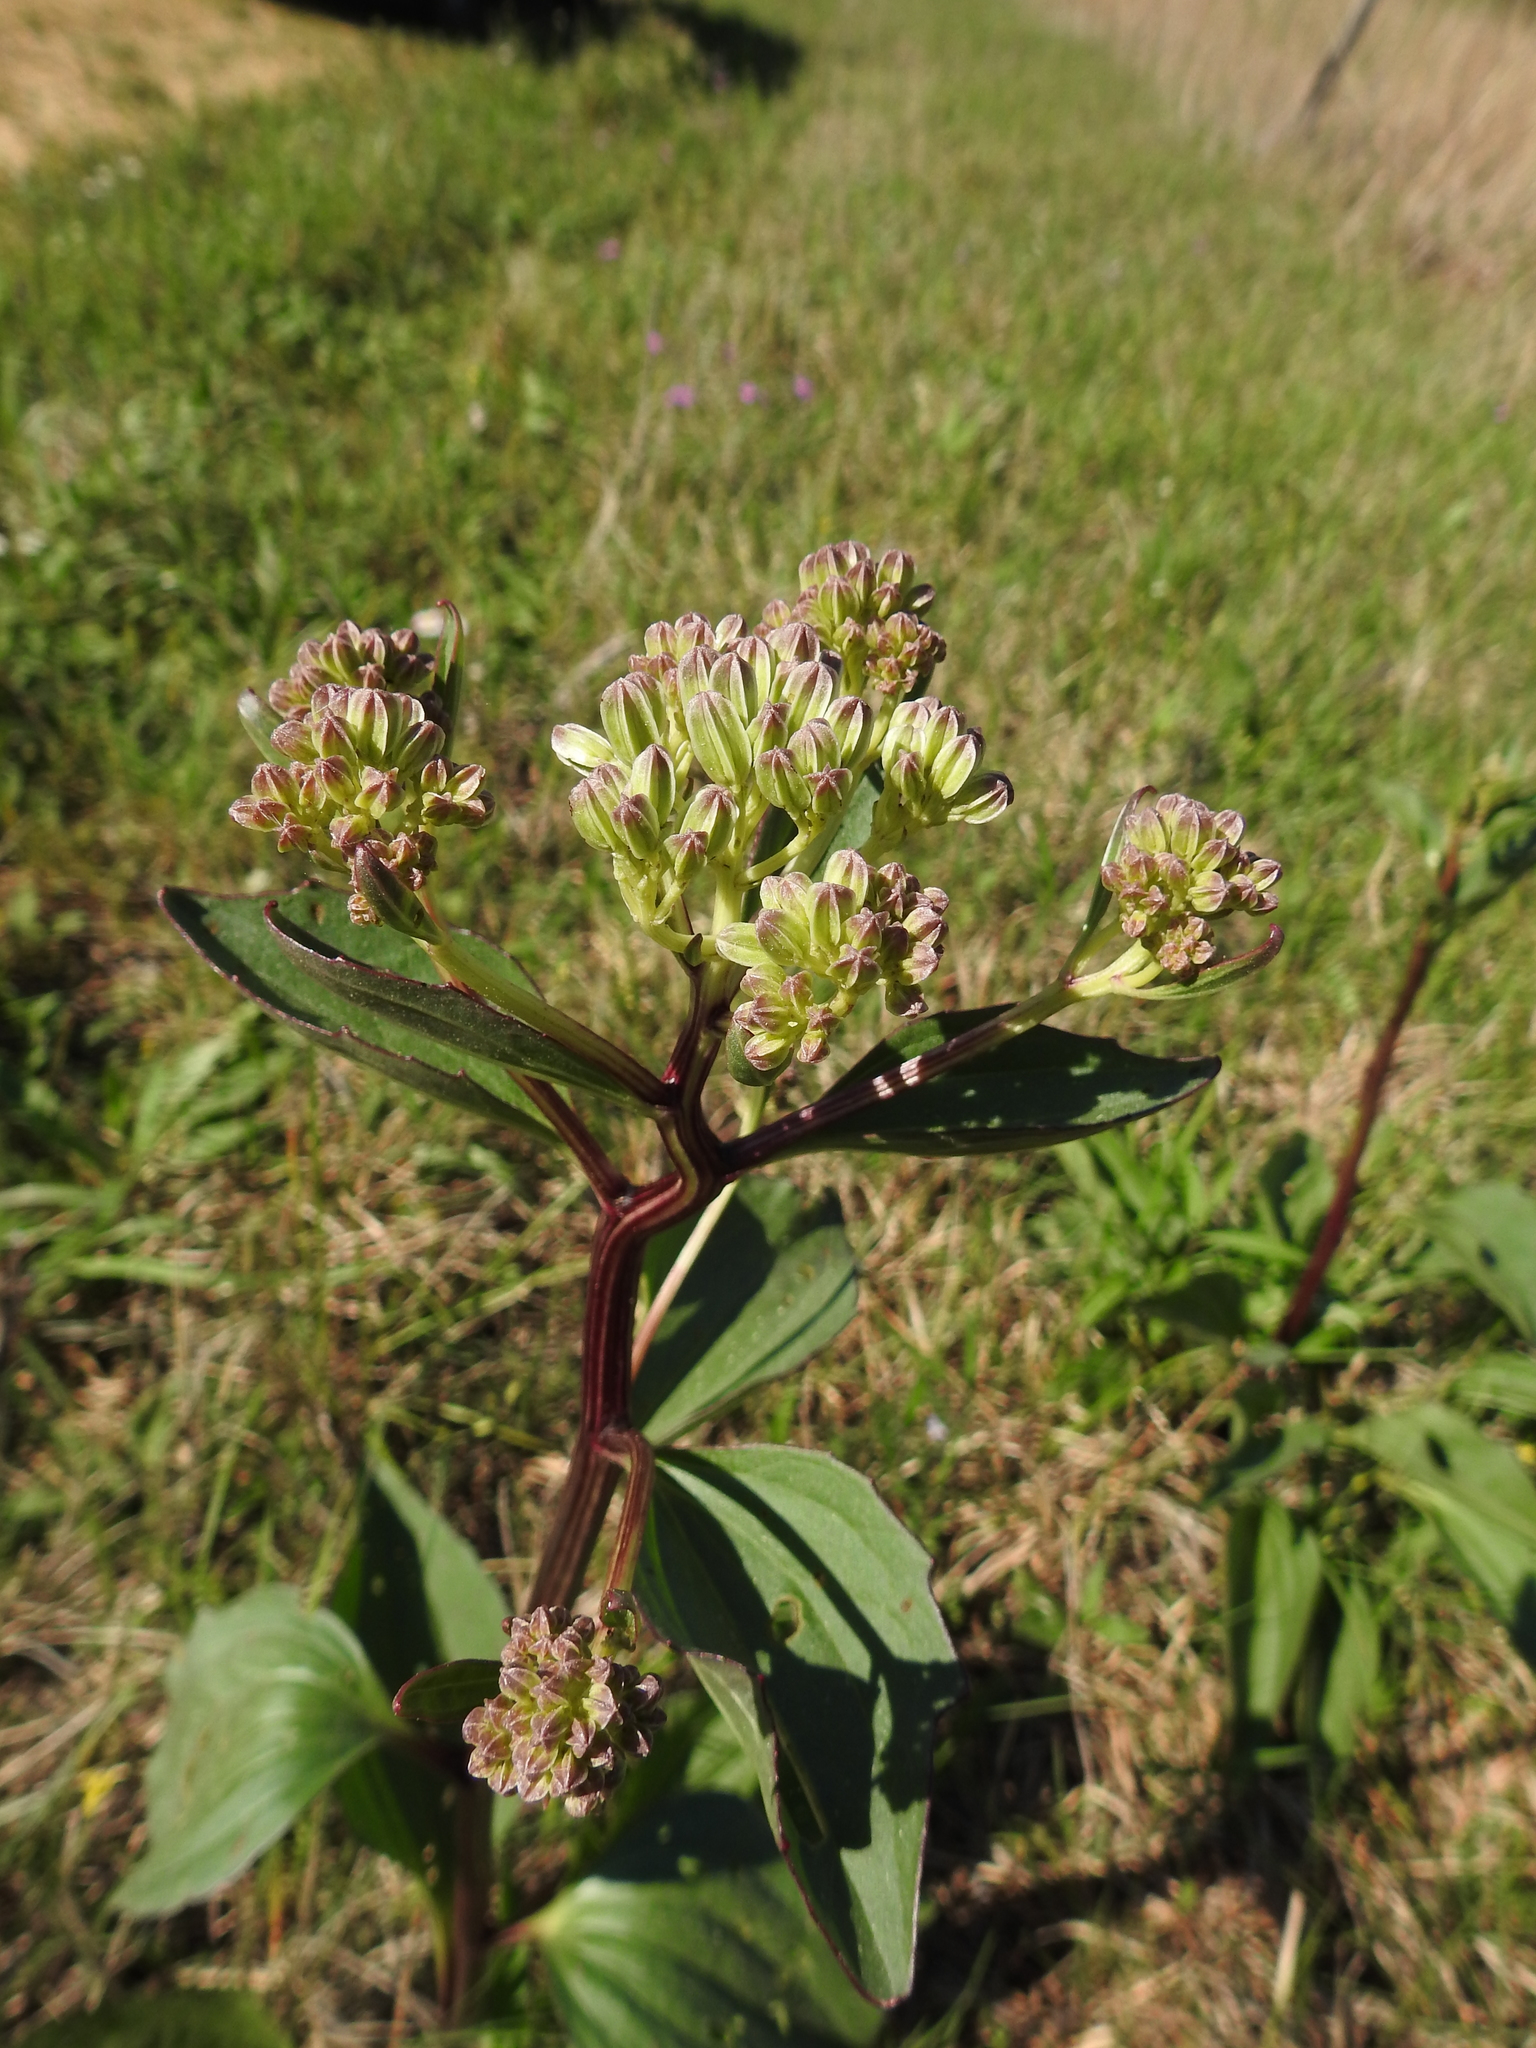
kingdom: Plantae
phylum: Tracheophyta
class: Magnoliopsida
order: Asterales
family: Asteraceae
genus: Arnoglossum
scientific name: Arnoglossum plantagineum
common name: Groove-stemmed indian-plantain
